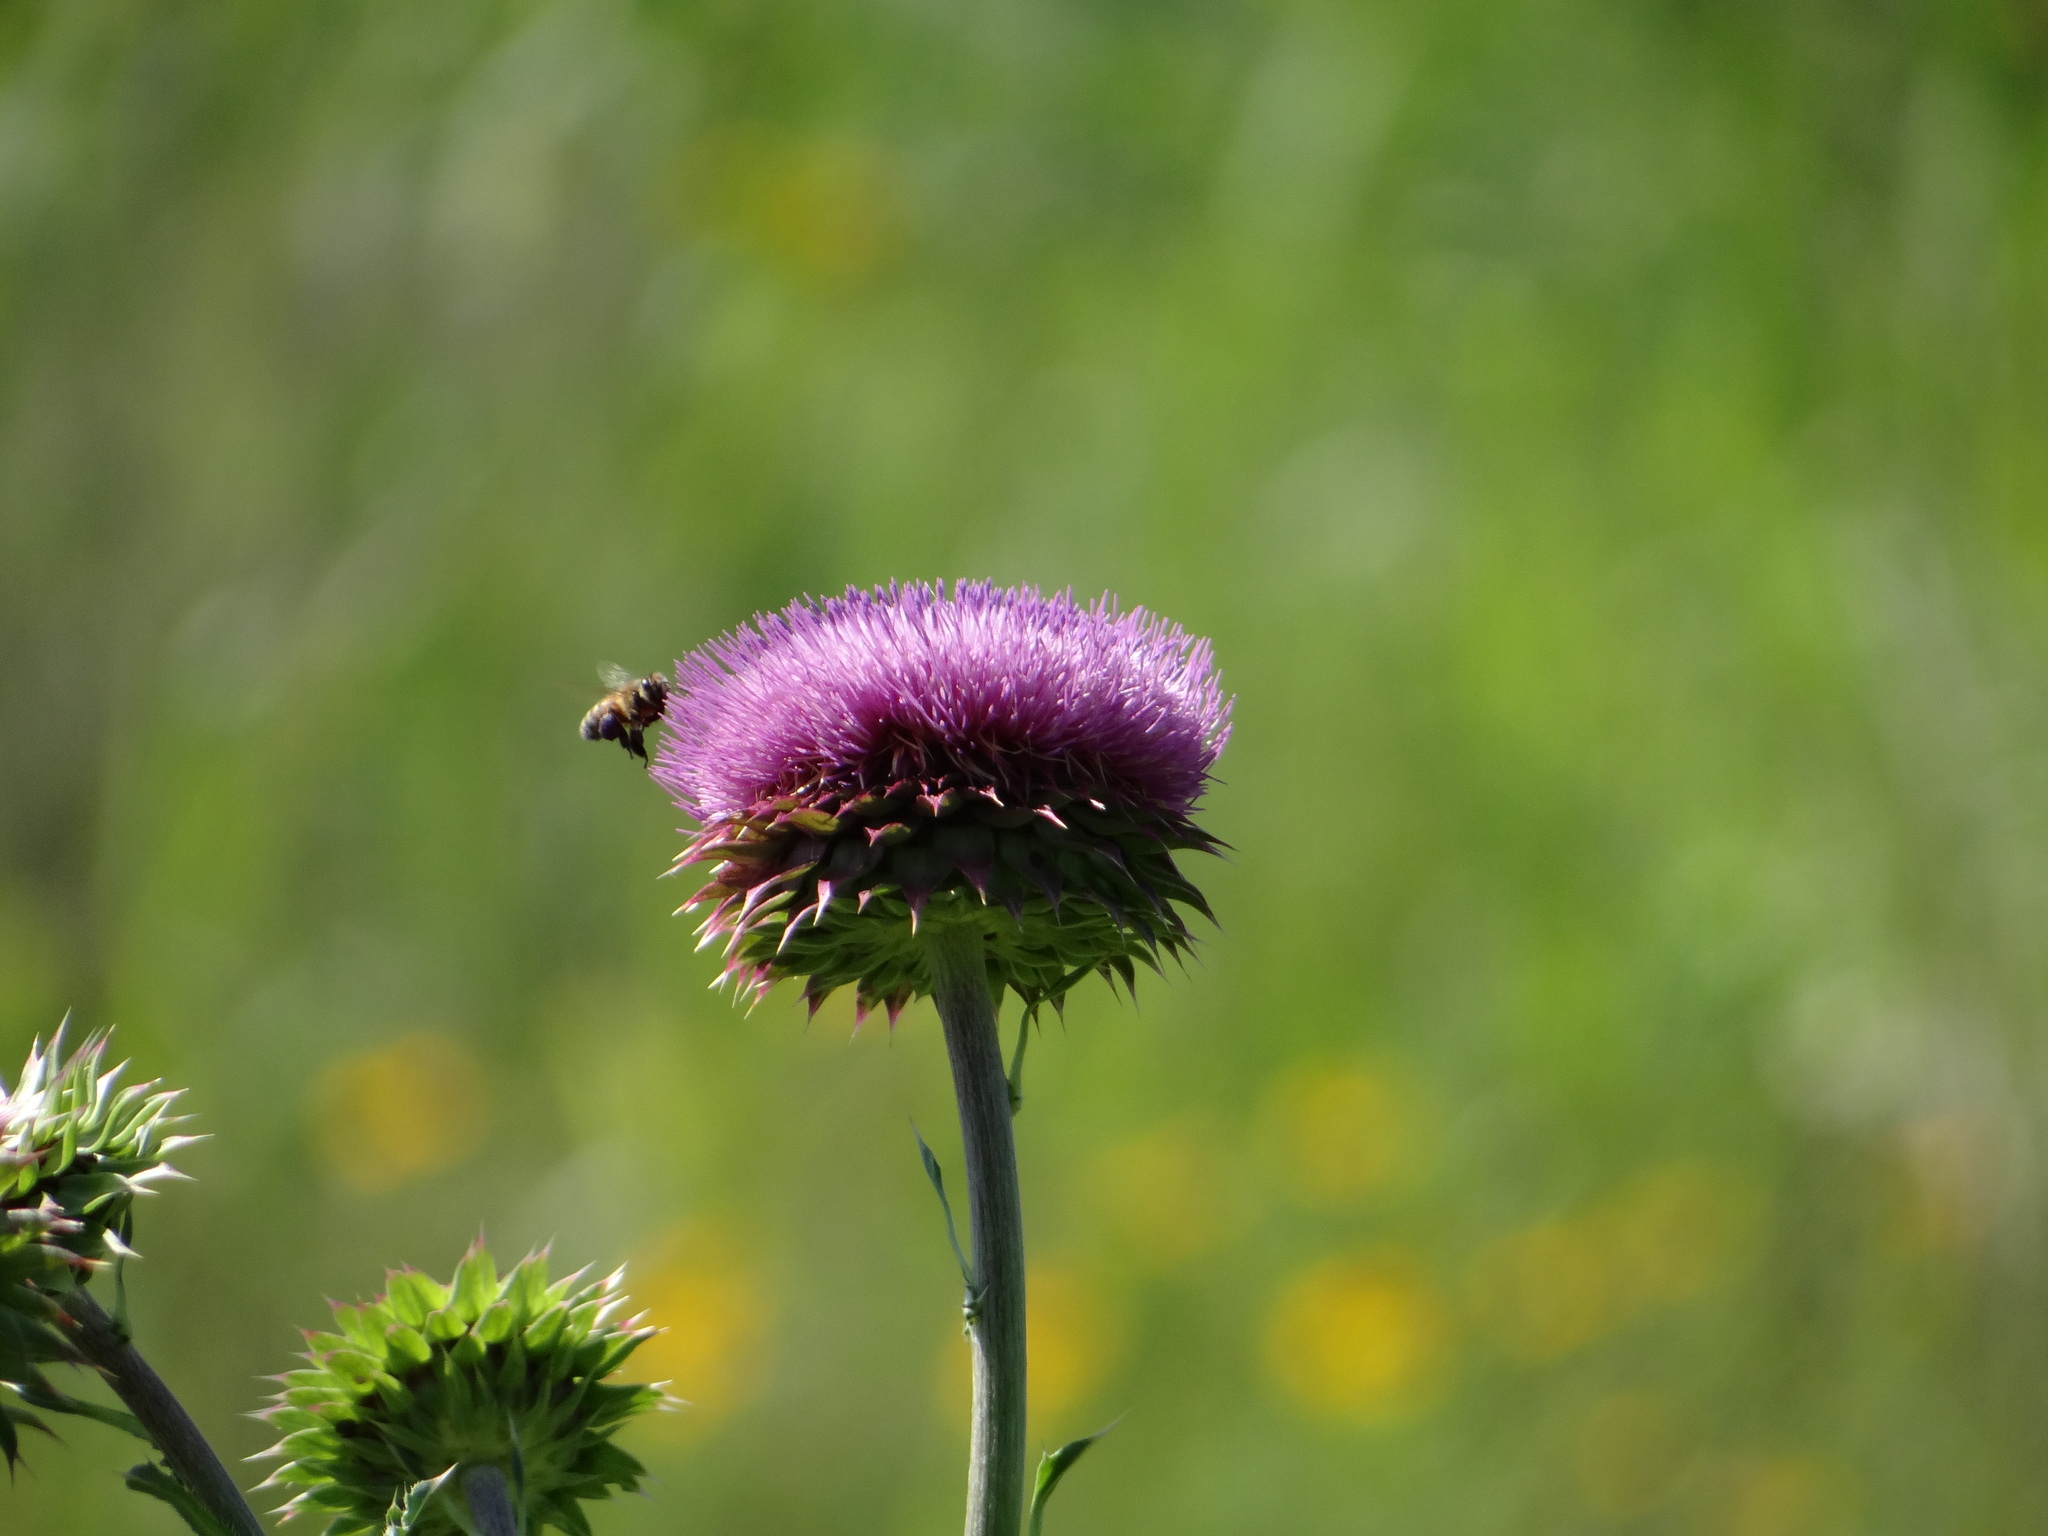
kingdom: Animalia
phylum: Arthropoda
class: Insecta
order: Hymenoptera
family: Apidae
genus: Apis
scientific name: Apis mellifera
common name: Honey bee
